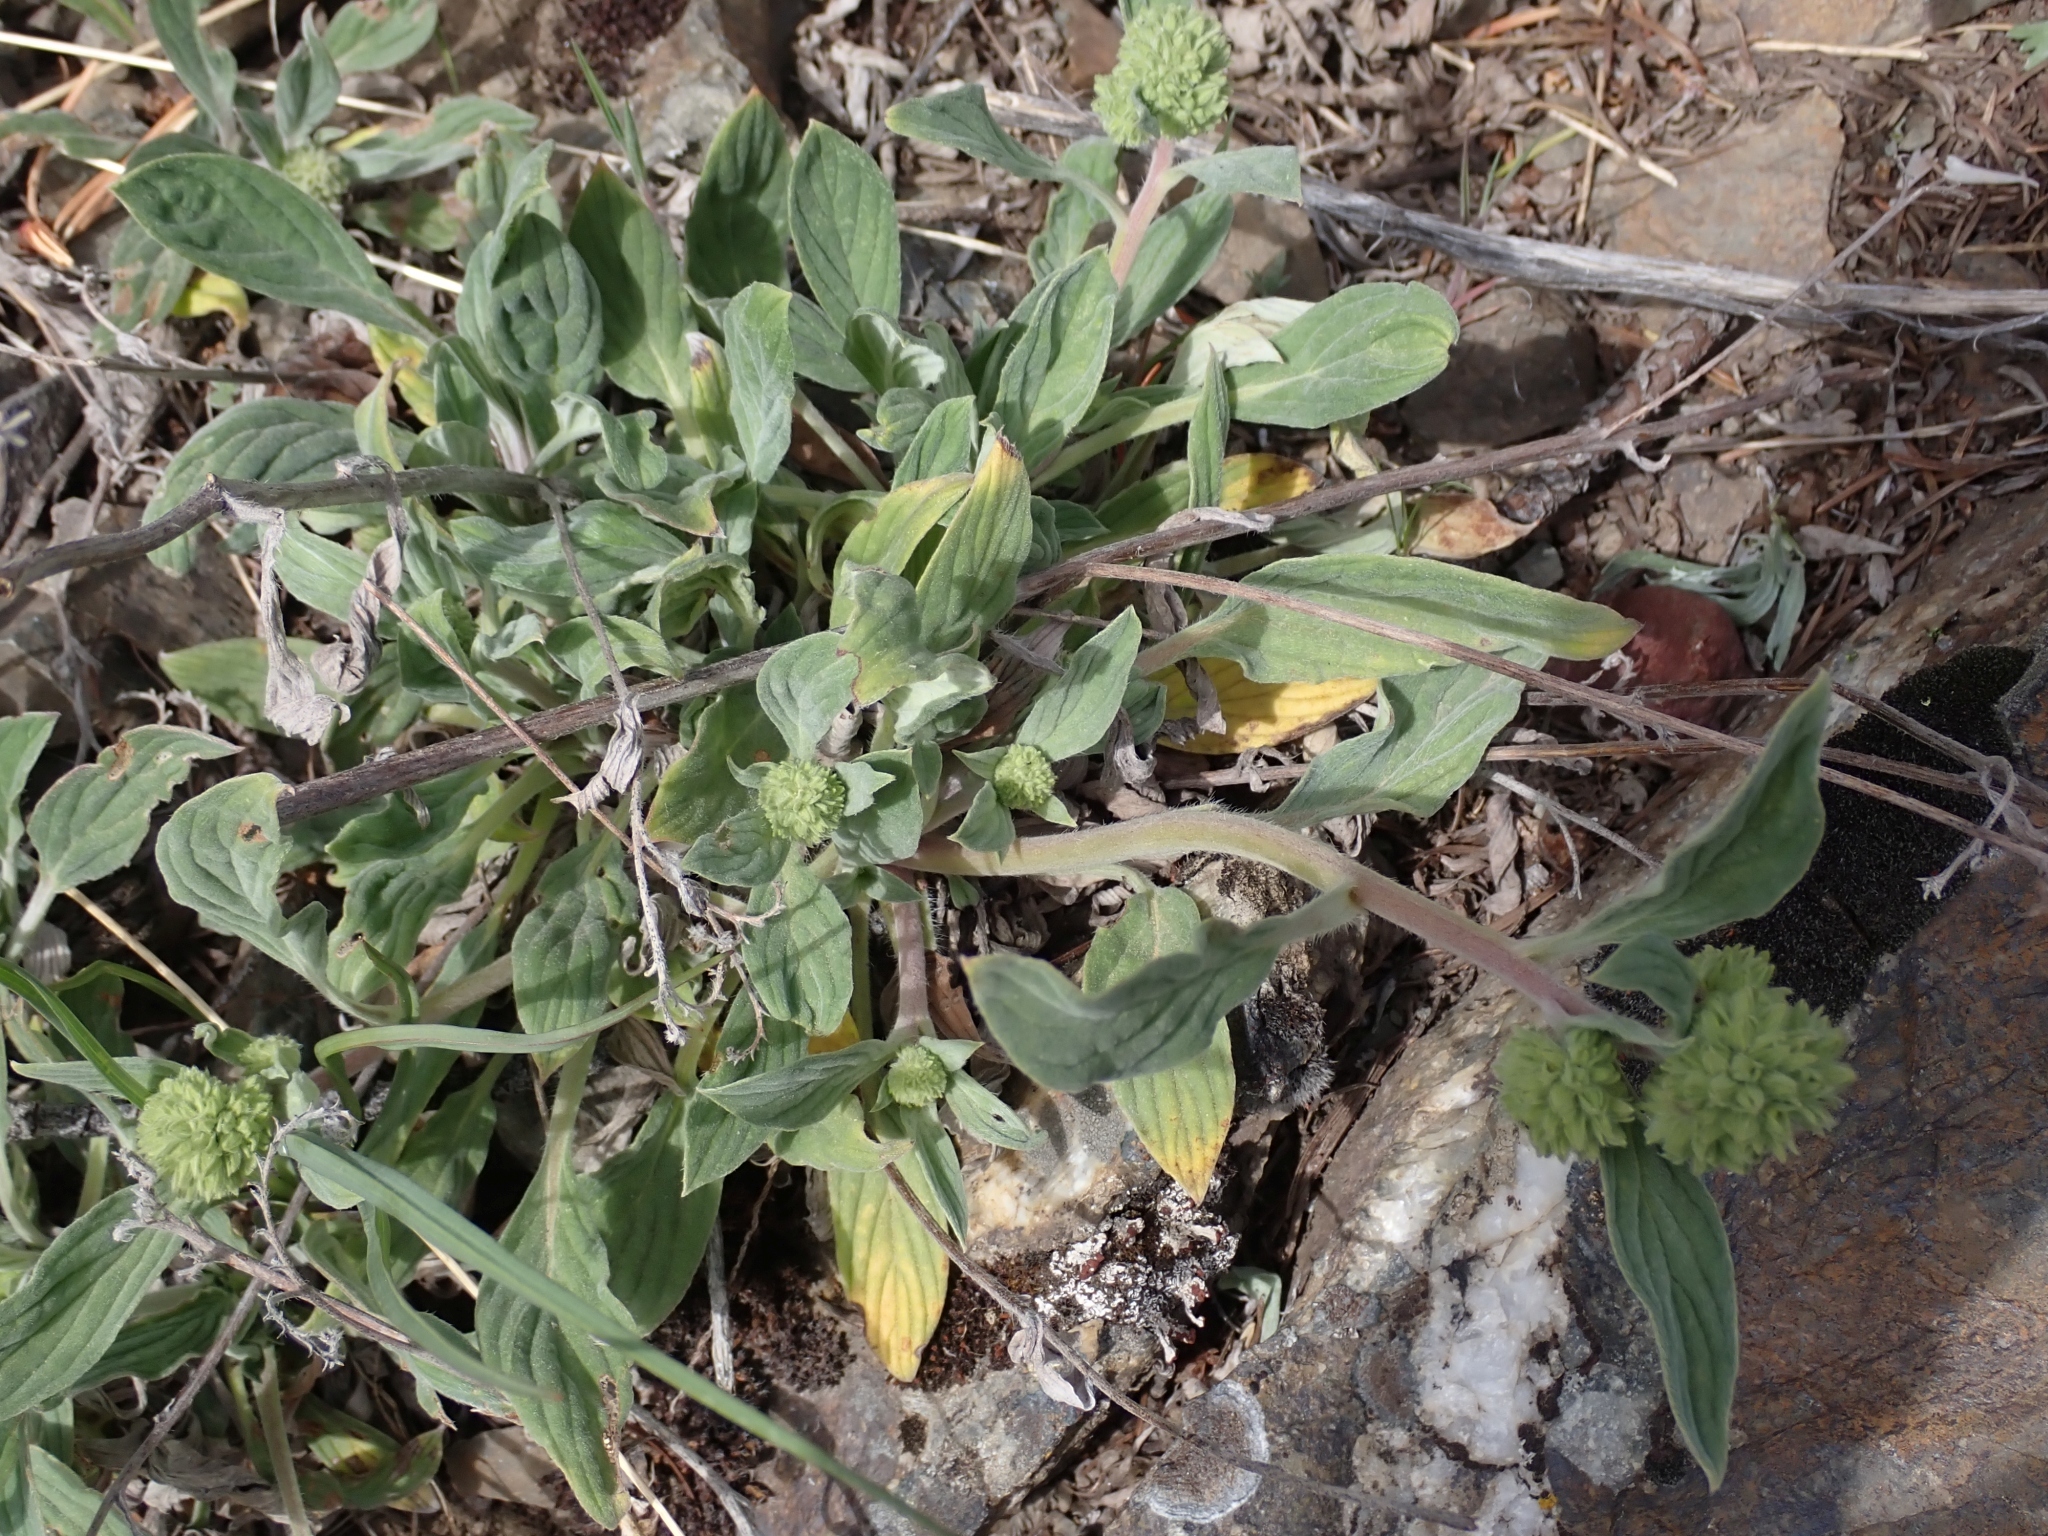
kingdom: Plantae
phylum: Tracheophyta
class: Magnoliopsida
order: Boraginales
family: Hydrophyllaceae
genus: Phacelia
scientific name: Phacelia hastata
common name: Silver-leaved phacelia
